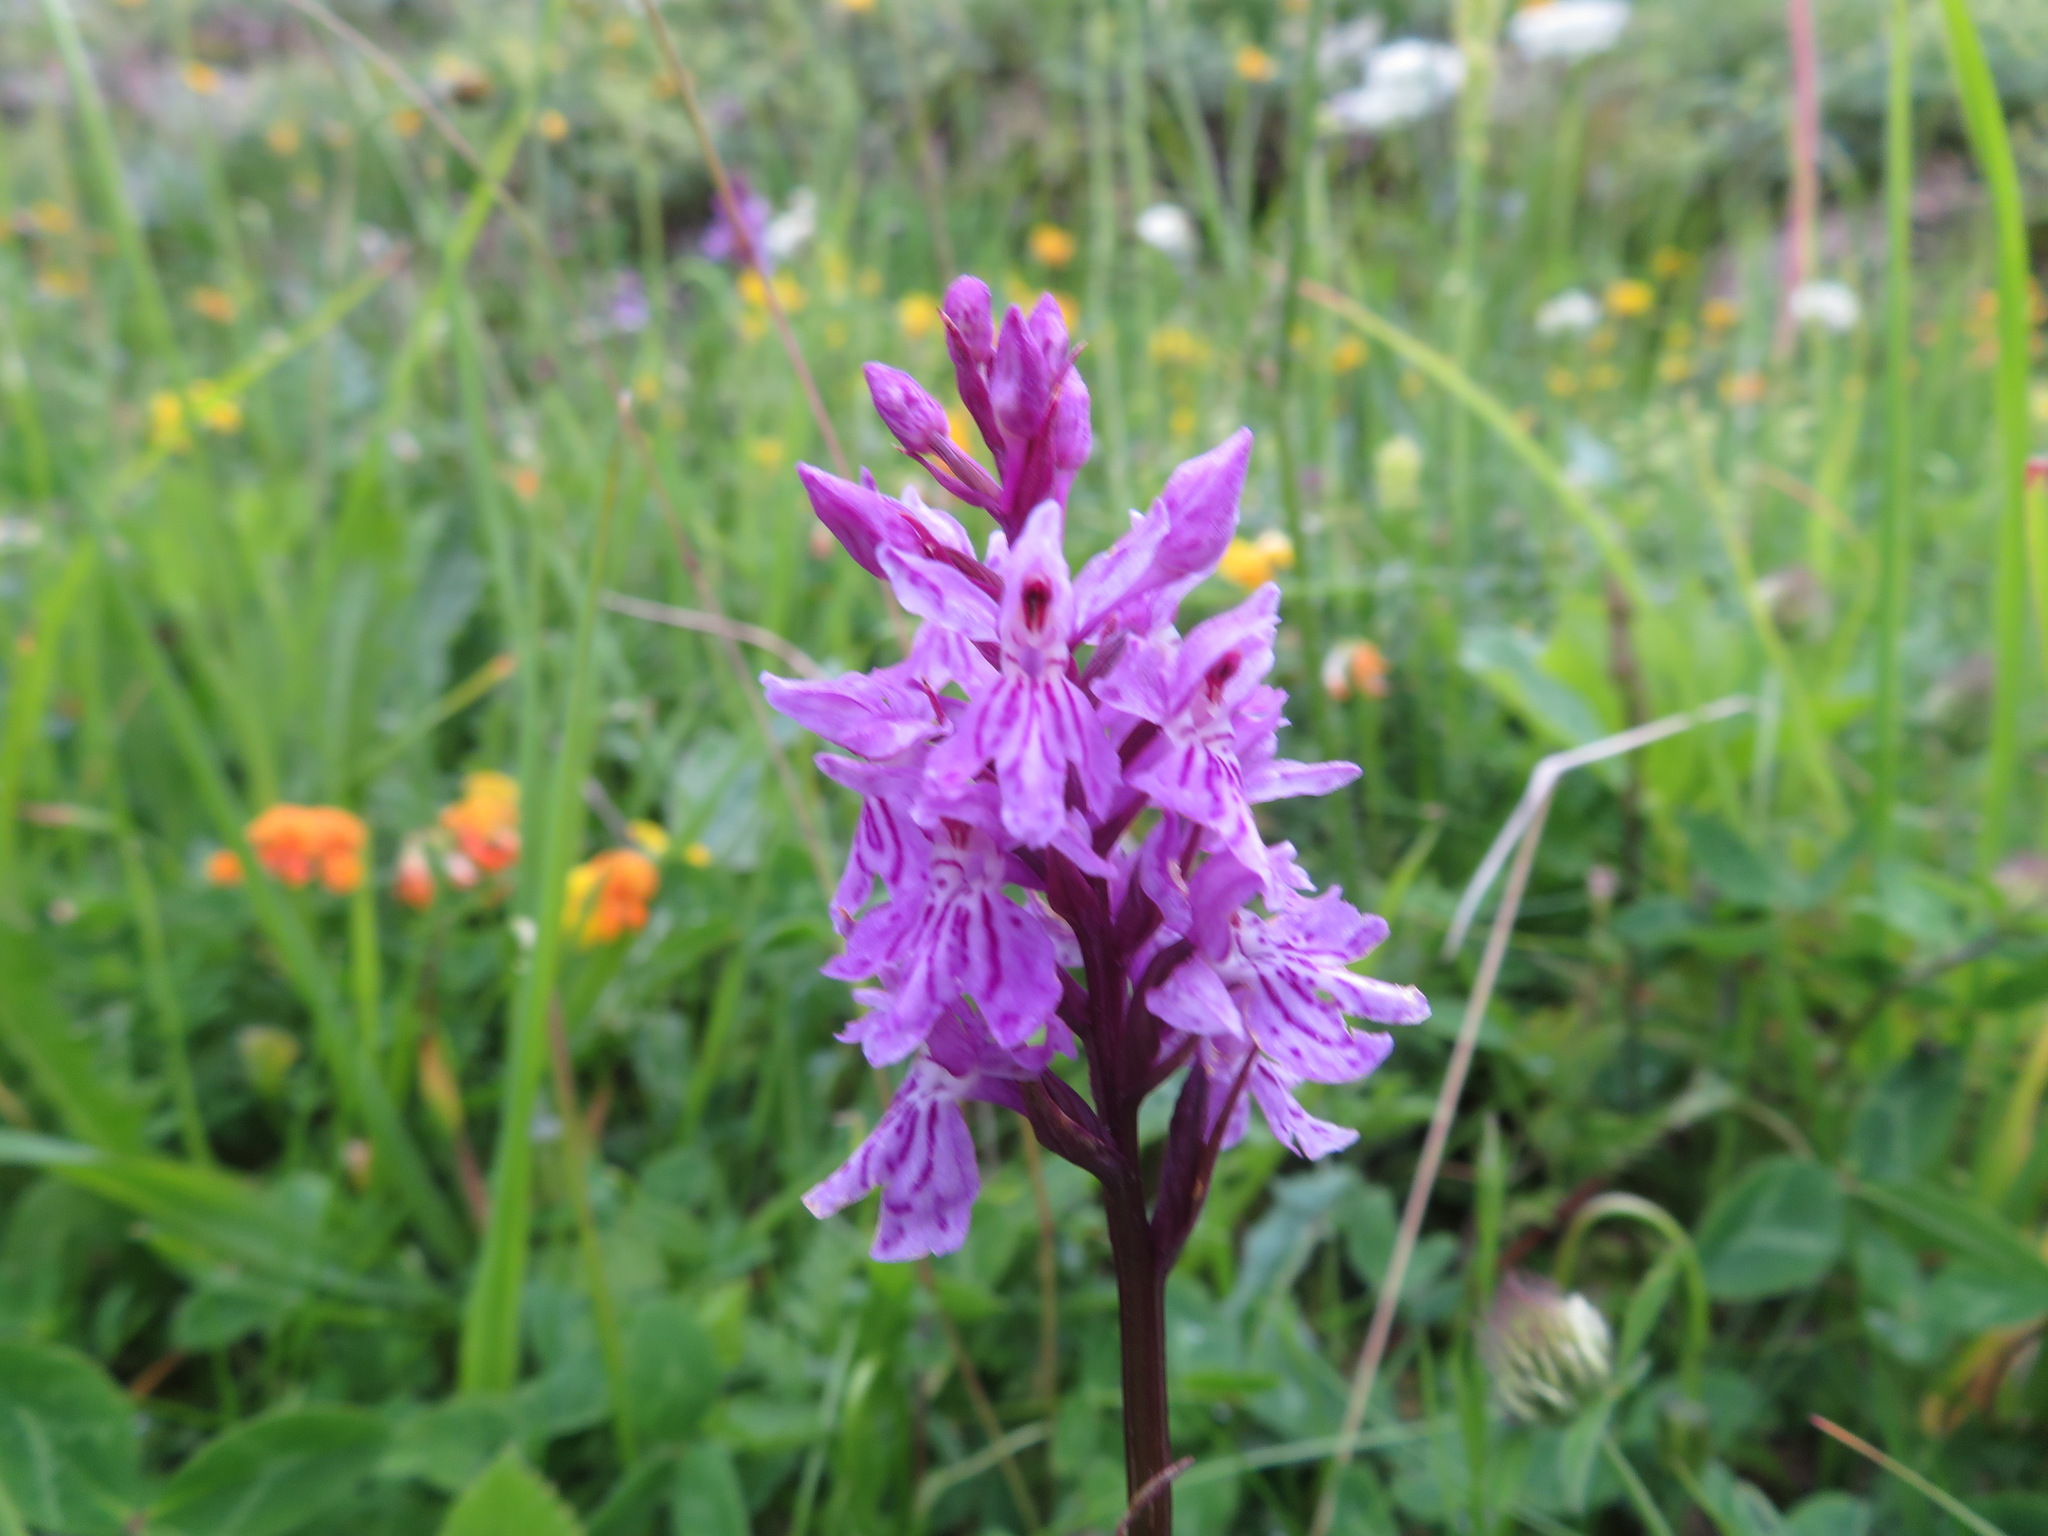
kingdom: Plantae
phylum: Tracheophyta
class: Liliopsida
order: Asparagales
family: Orchidaceae
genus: Dactylorhiza
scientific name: Dactylorhiza maculata
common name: Heath spotted-orchid
